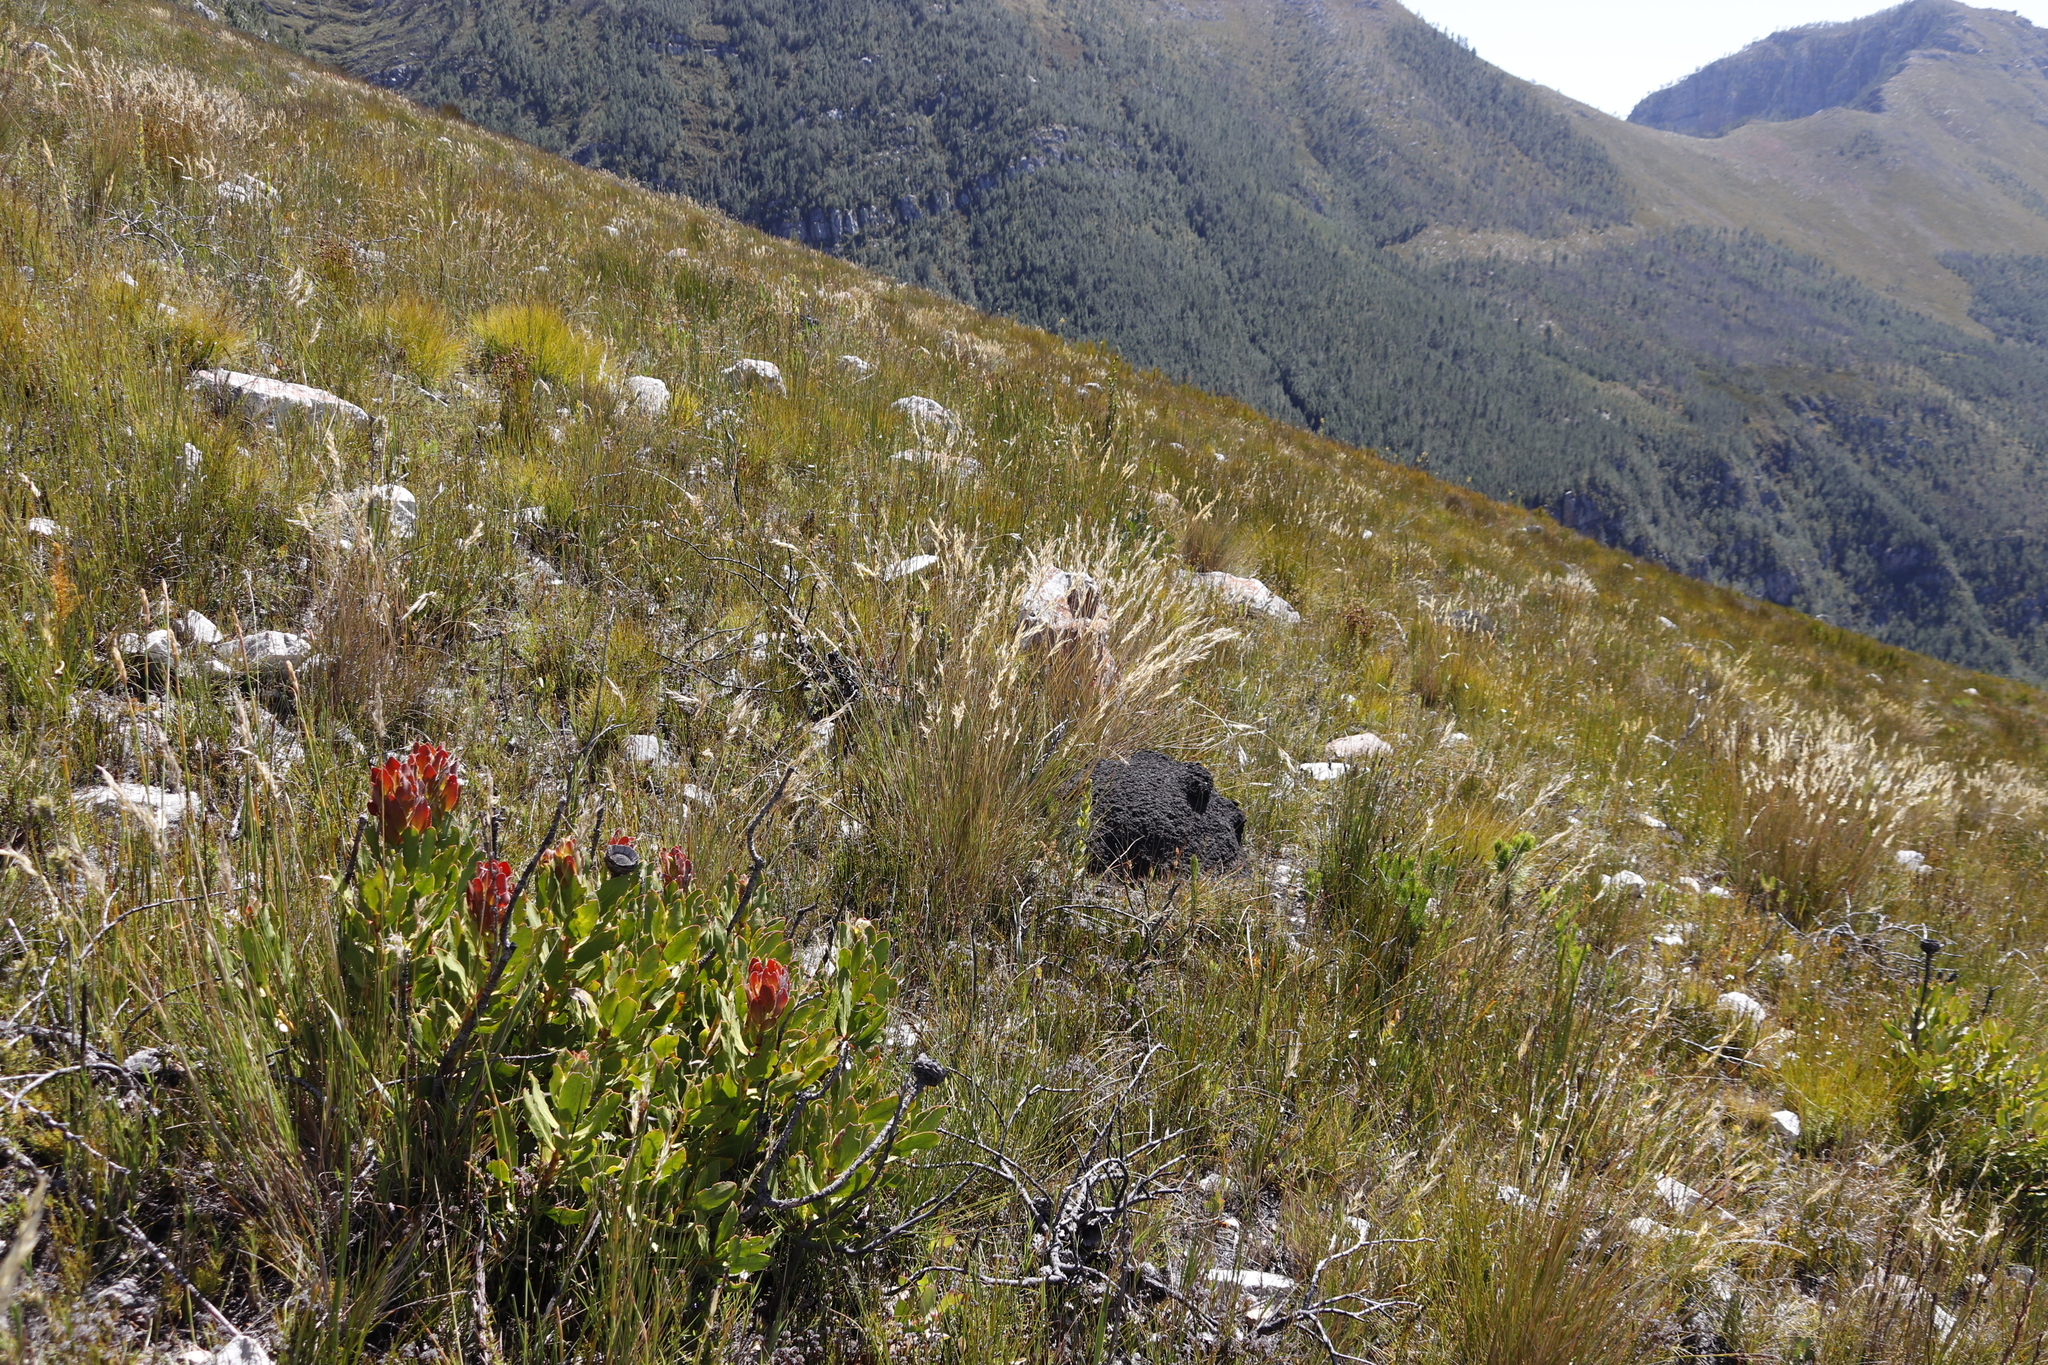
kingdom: Animalia
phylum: Arthropoda
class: Insecta
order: Blattodea
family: Termitidae
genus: Amitermes
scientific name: Amitermes hastatus
